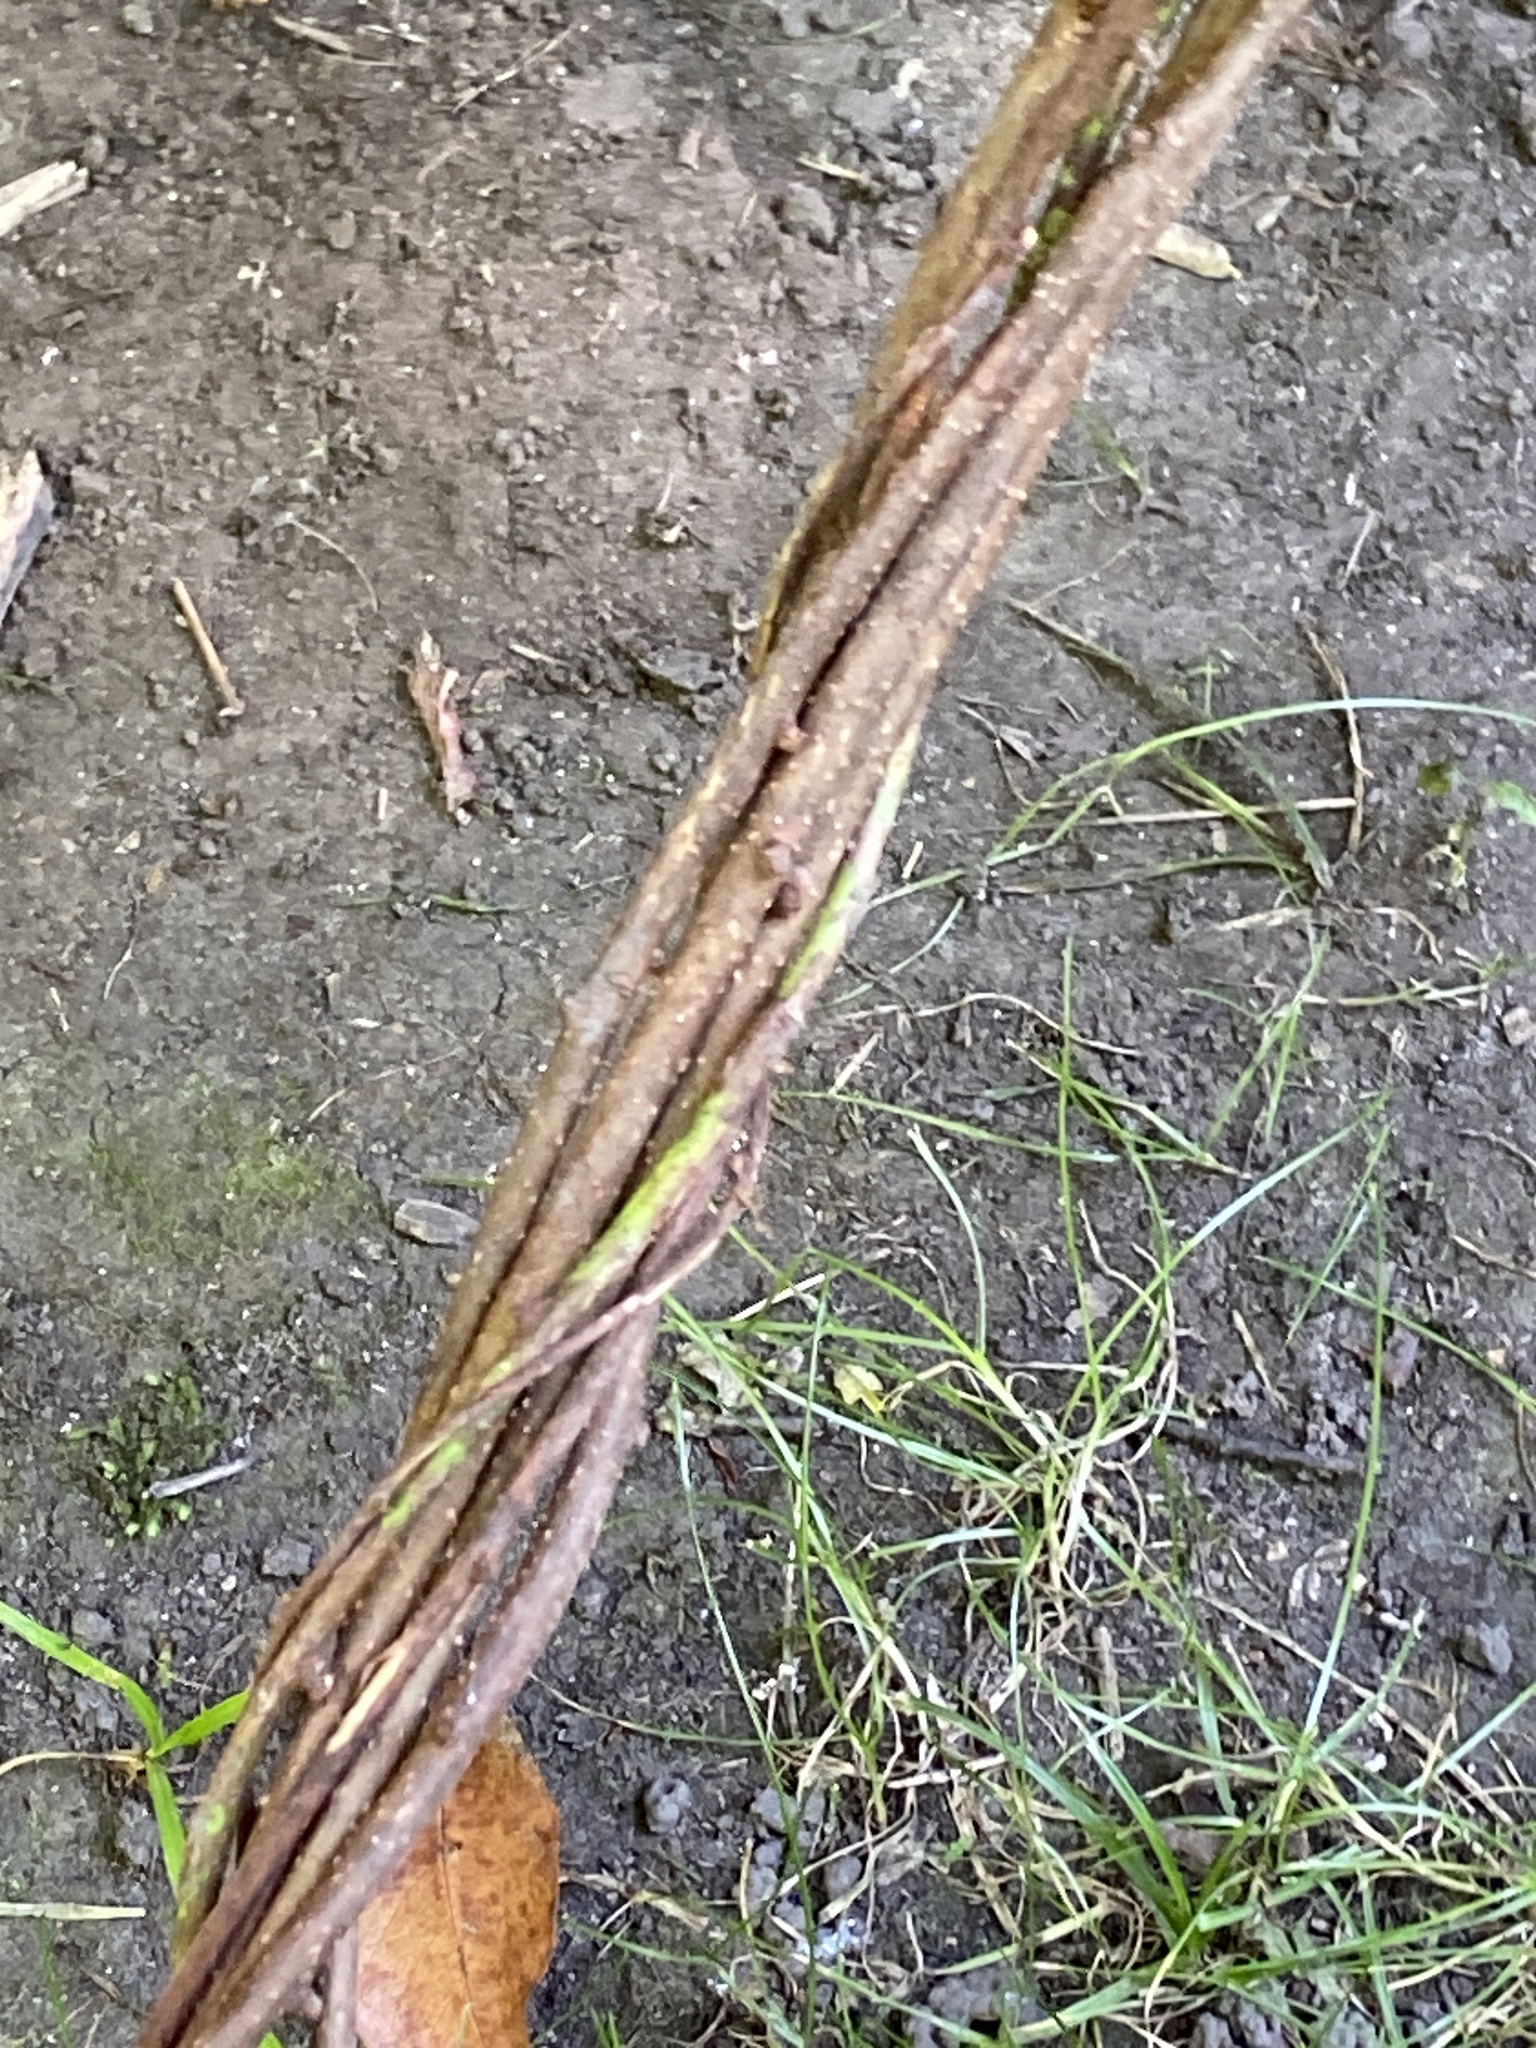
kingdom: Plantae
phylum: Tracheophyta
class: Magnoliopsida
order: Celastrales
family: Celastraceae
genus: Celastrus
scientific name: Celastrus orbiculatus
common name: Oriental bittersweet
